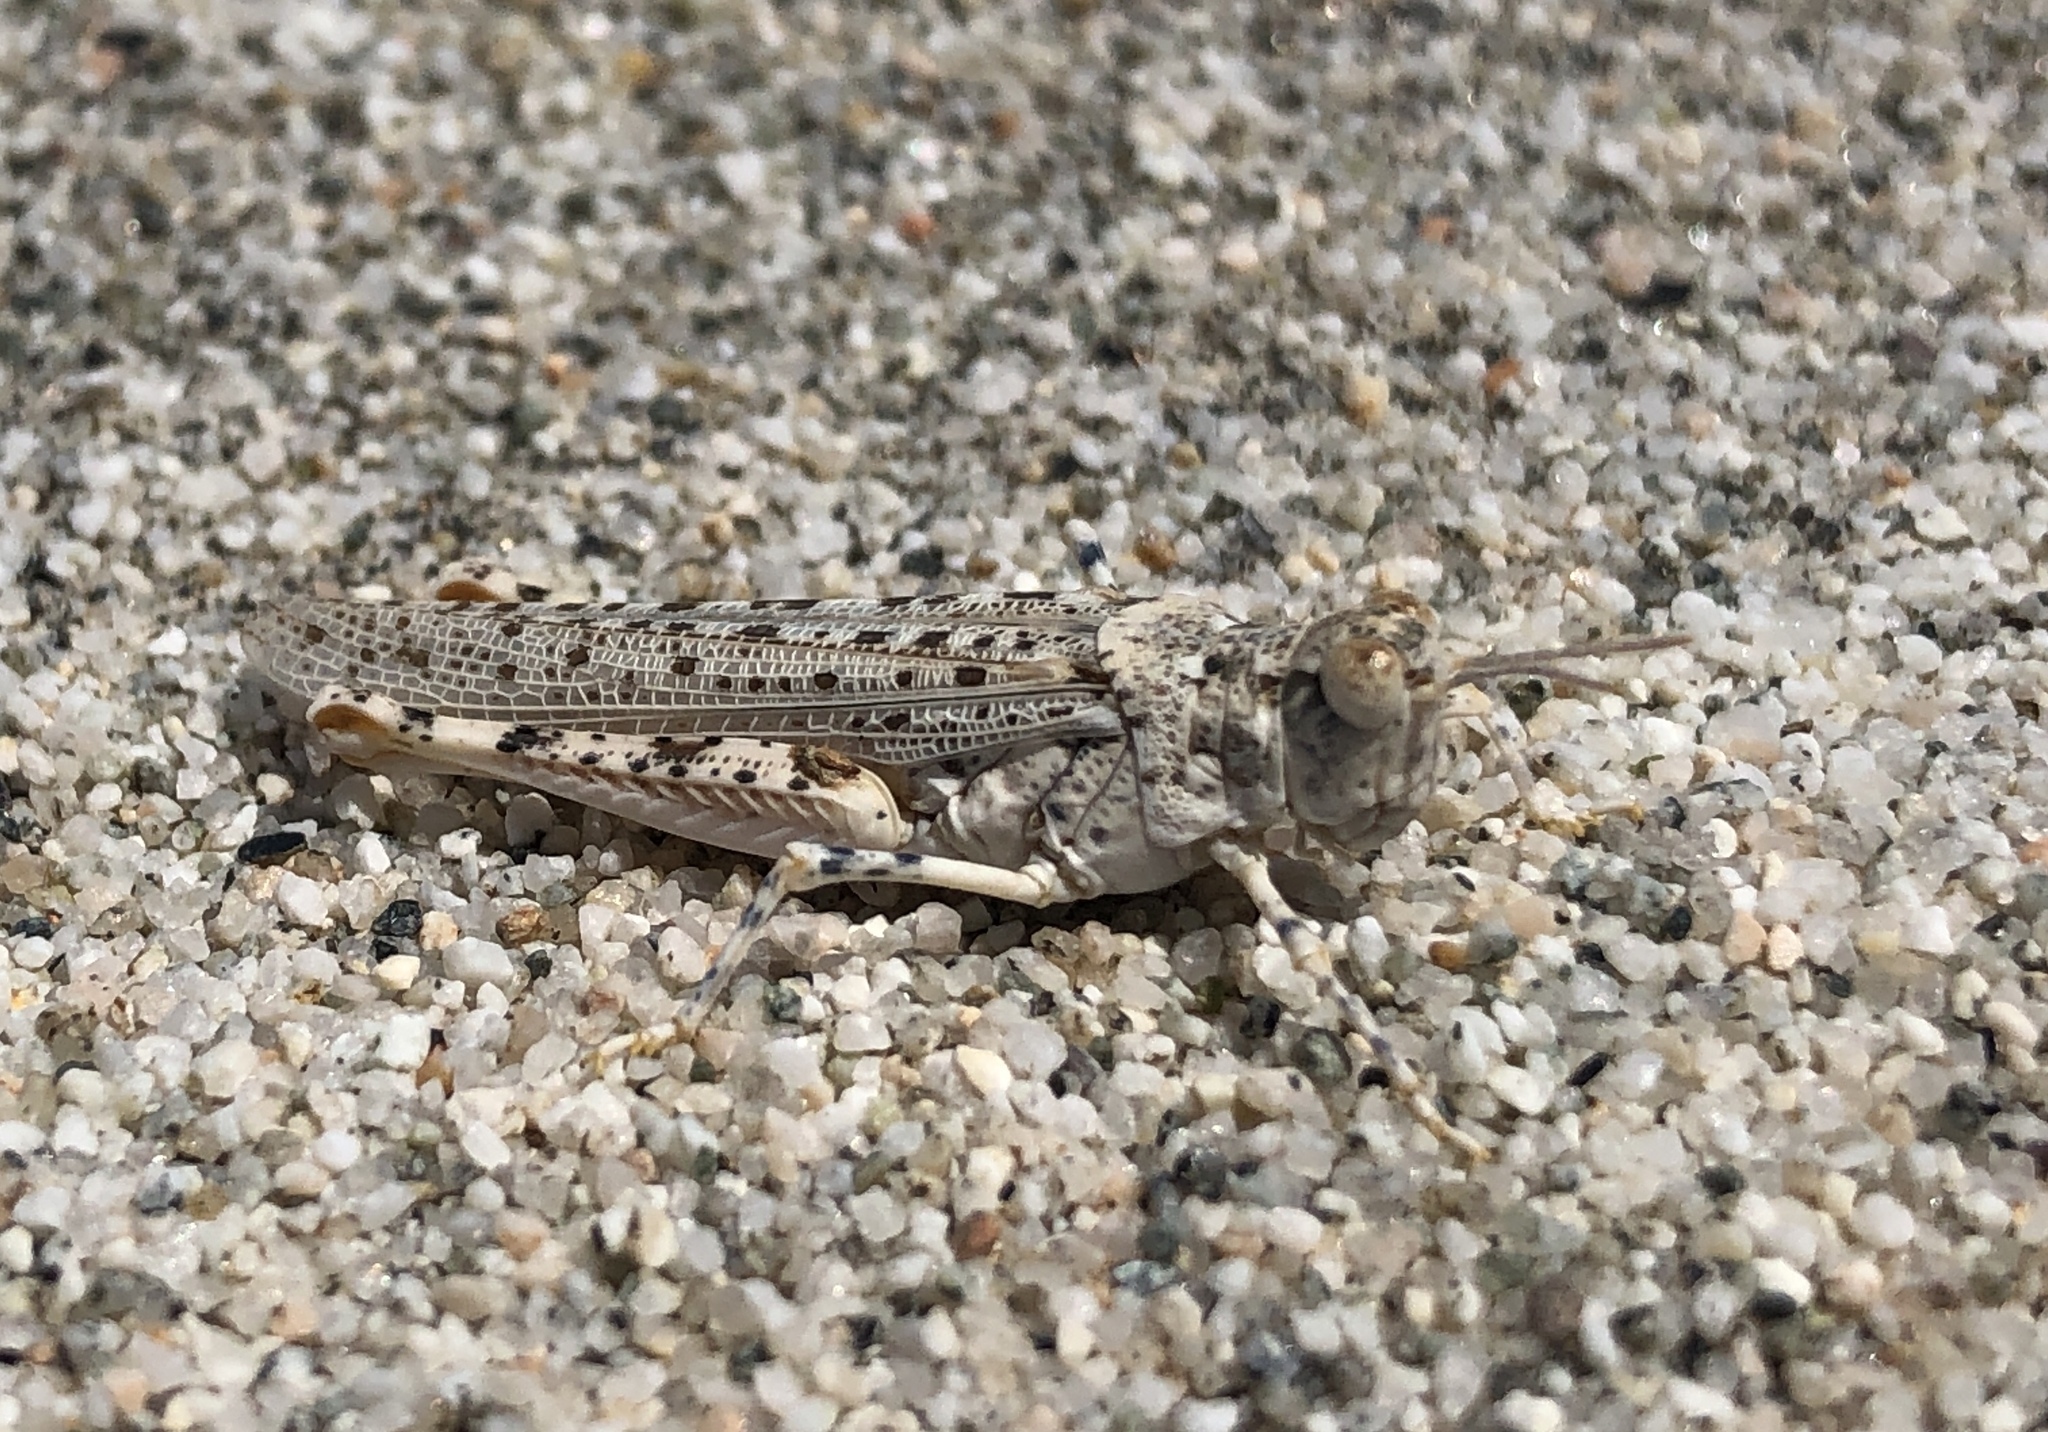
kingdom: Animalia
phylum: Arthropoda
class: Insecta
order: Orthoptera
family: Acrididae
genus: Xeracris
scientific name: Xeracris snowi
